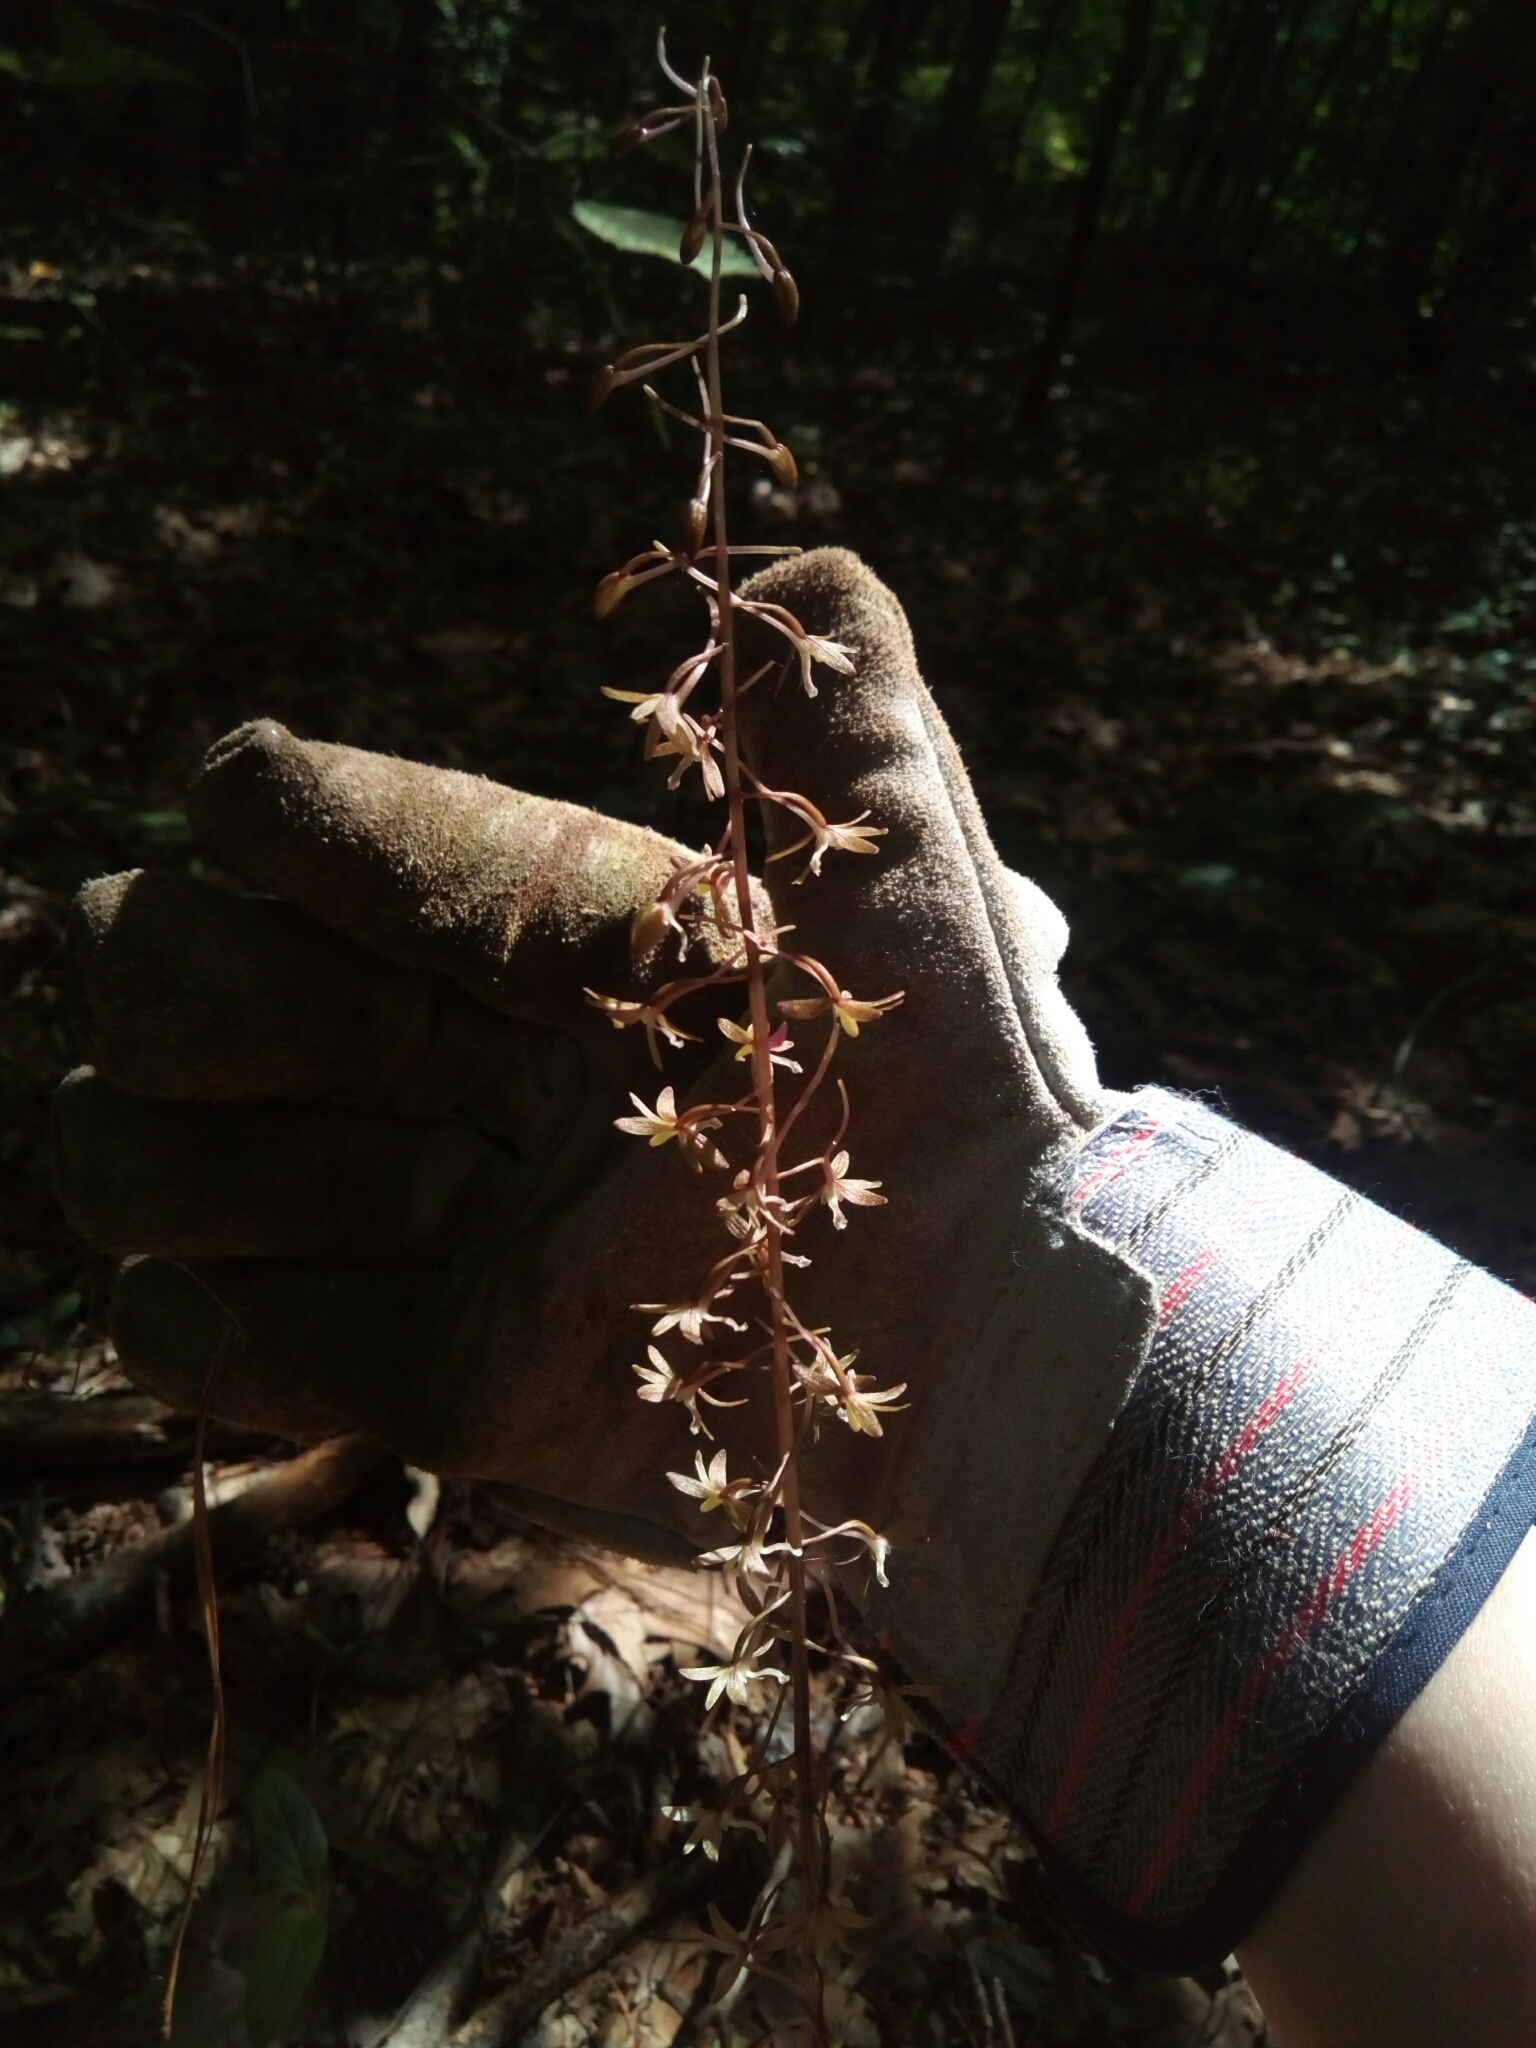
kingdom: Plantae
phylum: Tracheophyta
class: Liliopsida
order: Asparagales
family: Orchidaceae
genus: Tipularia
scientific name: Tipularia discolor
